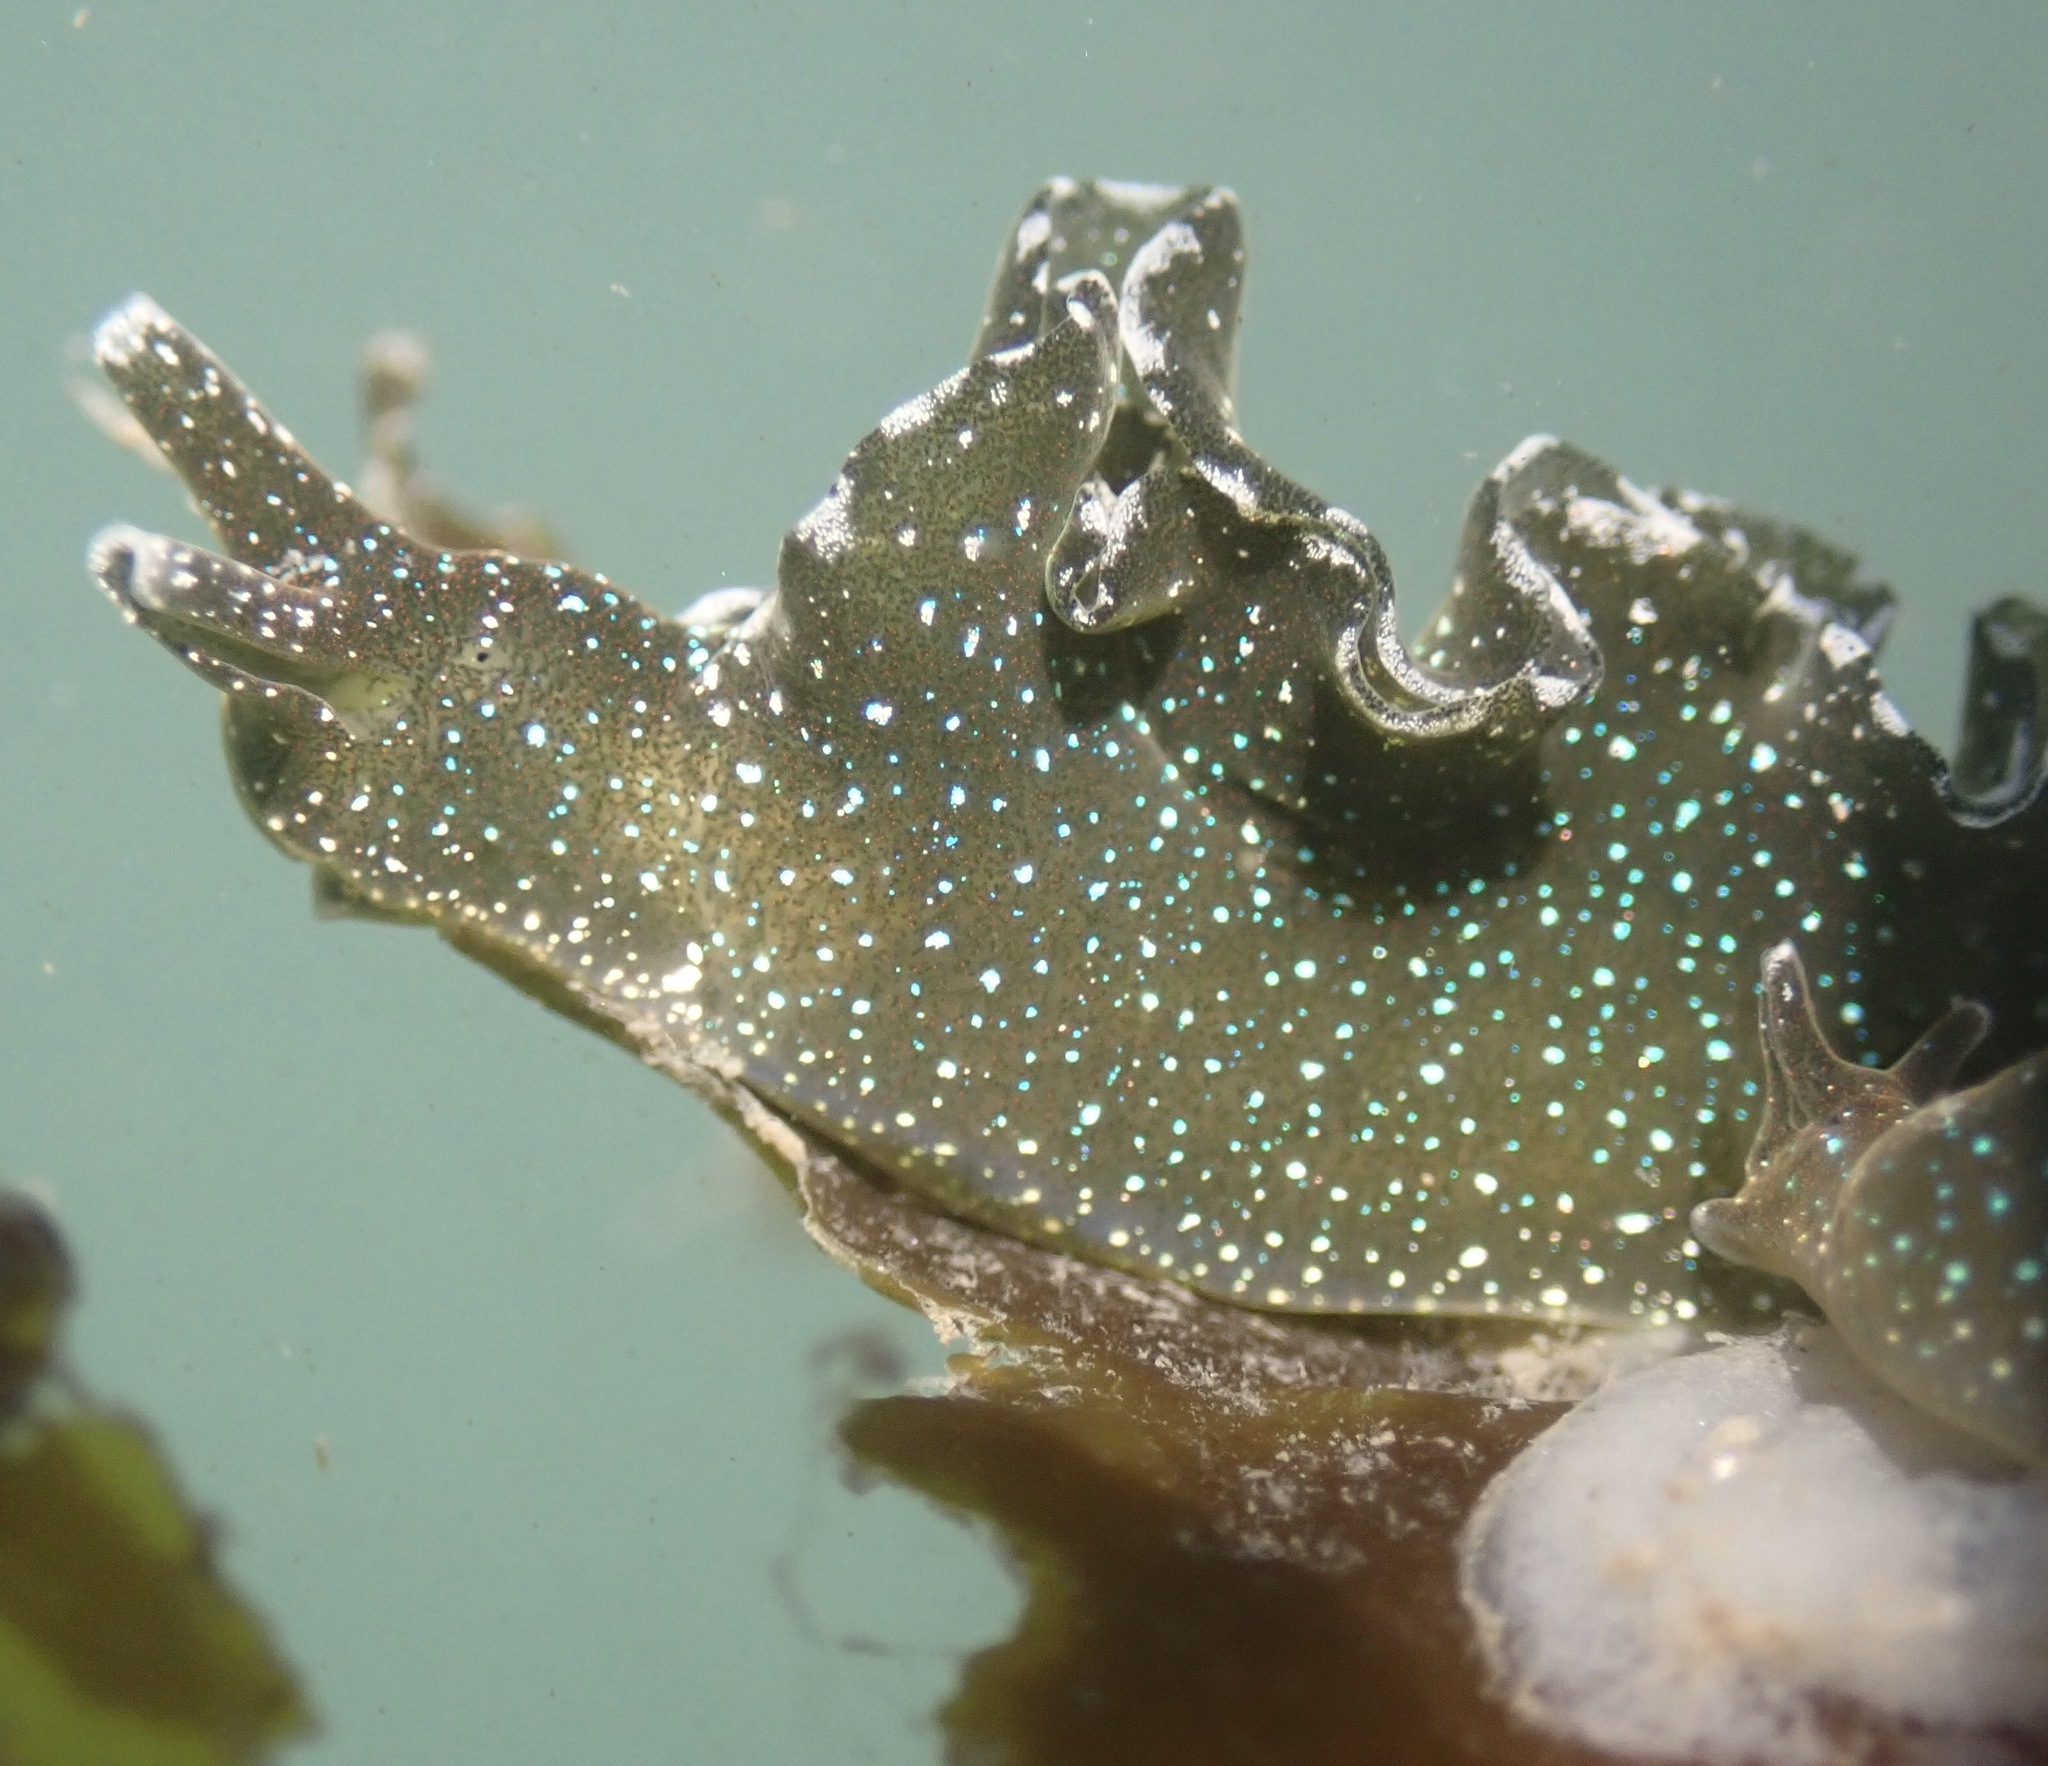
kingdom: Animalia
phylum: Mollusca
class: Gastropoda
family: Plakobranchidae
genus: Elysia
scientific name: Elysia hedgpethi
